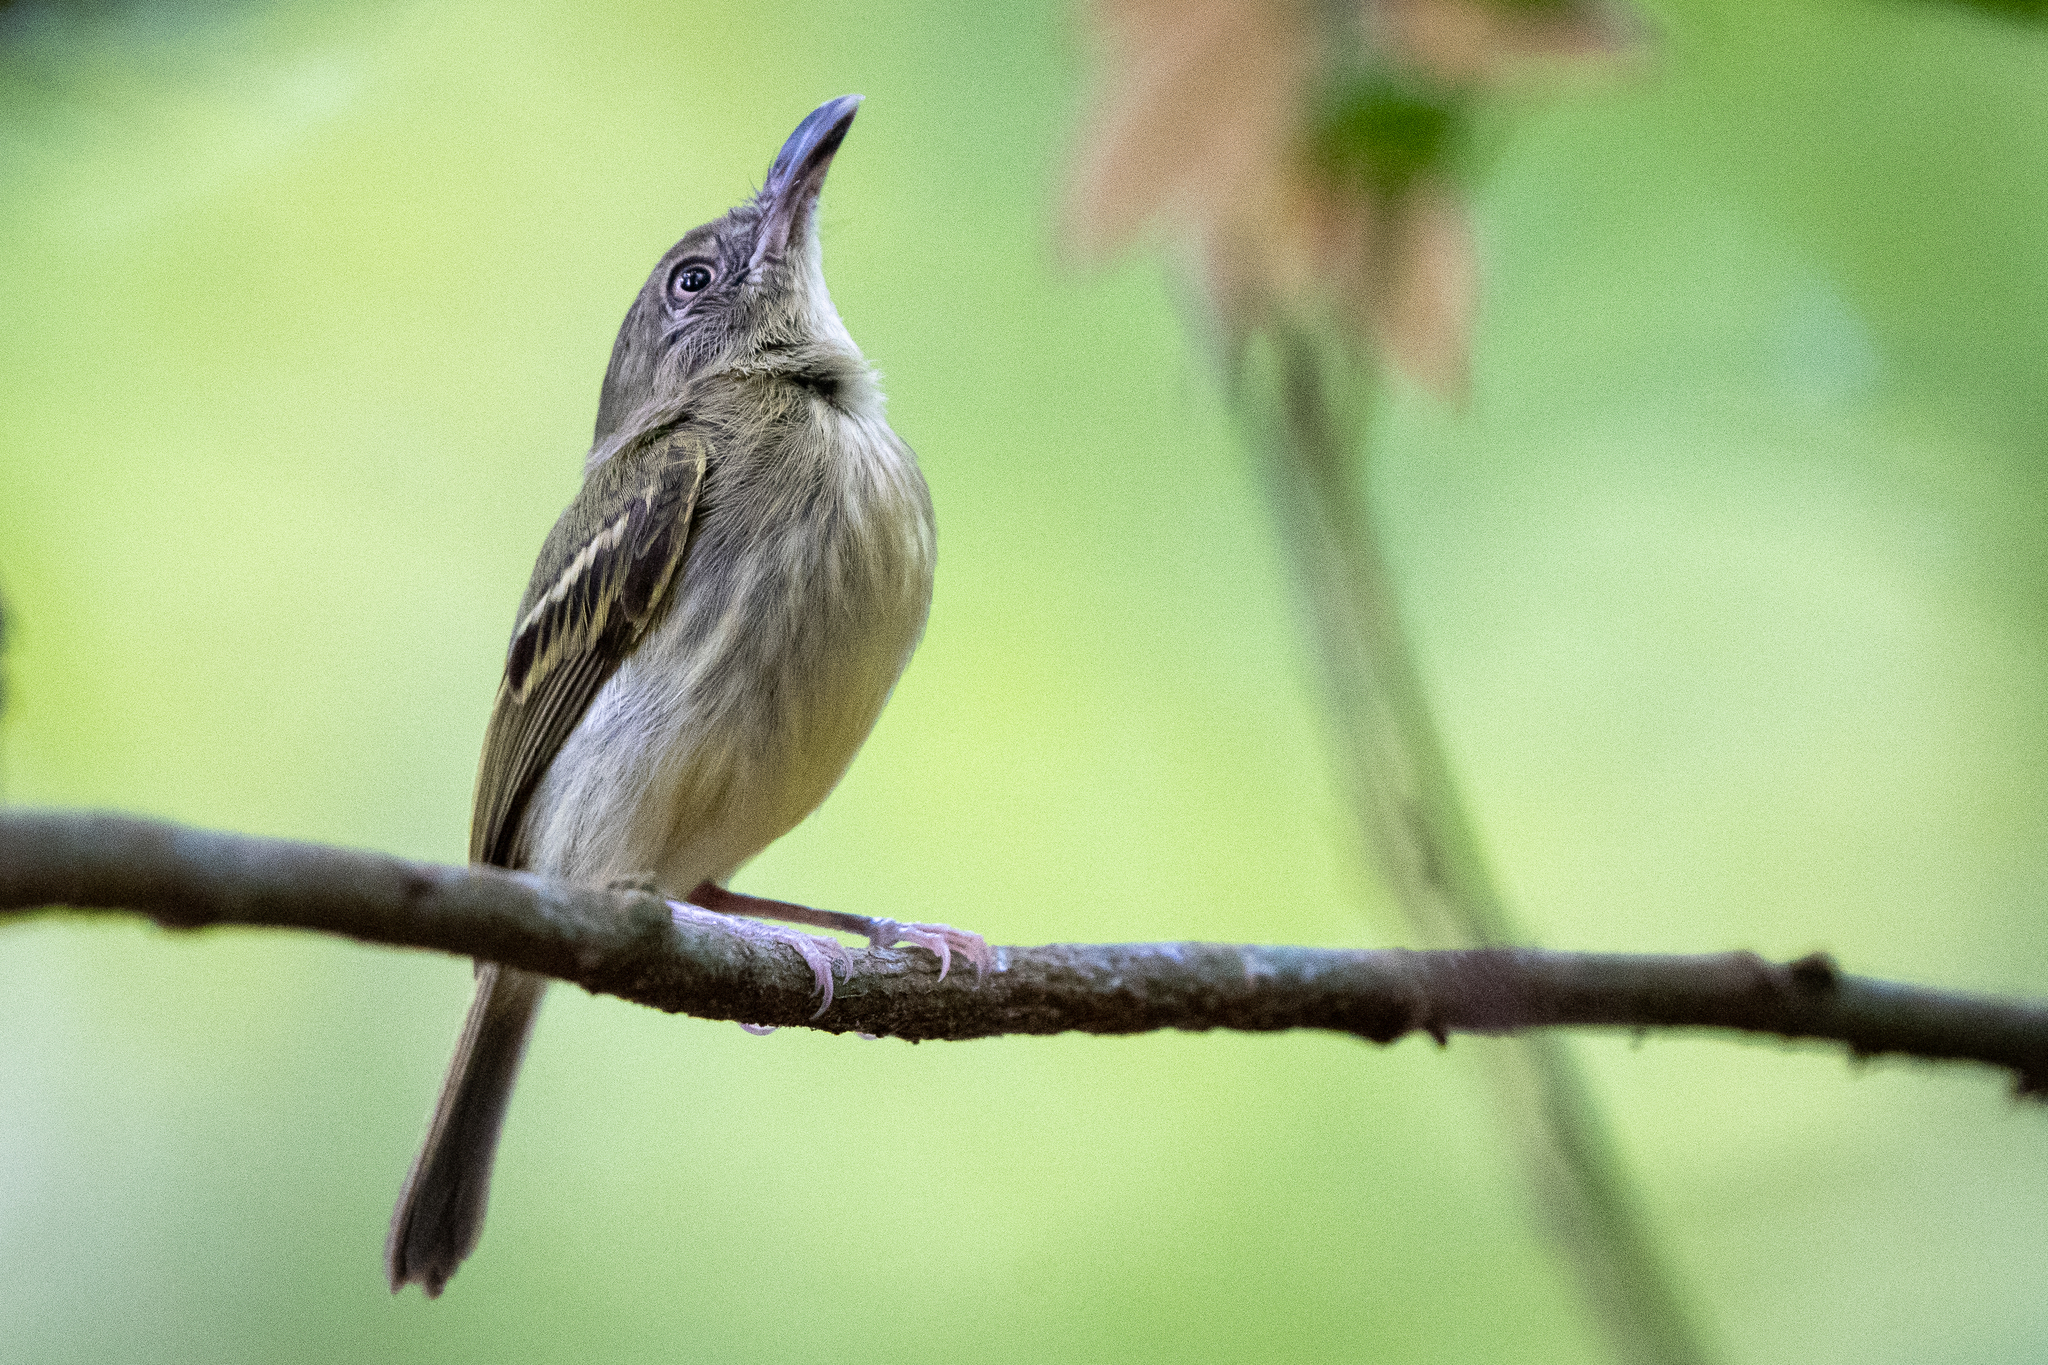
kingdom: Animalia
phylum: Chordata
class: Aves
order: Passeriformes
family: Tyrannidae
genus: Oncostoma
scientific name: Oncostoma olivaceum
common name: Southern bentbill
